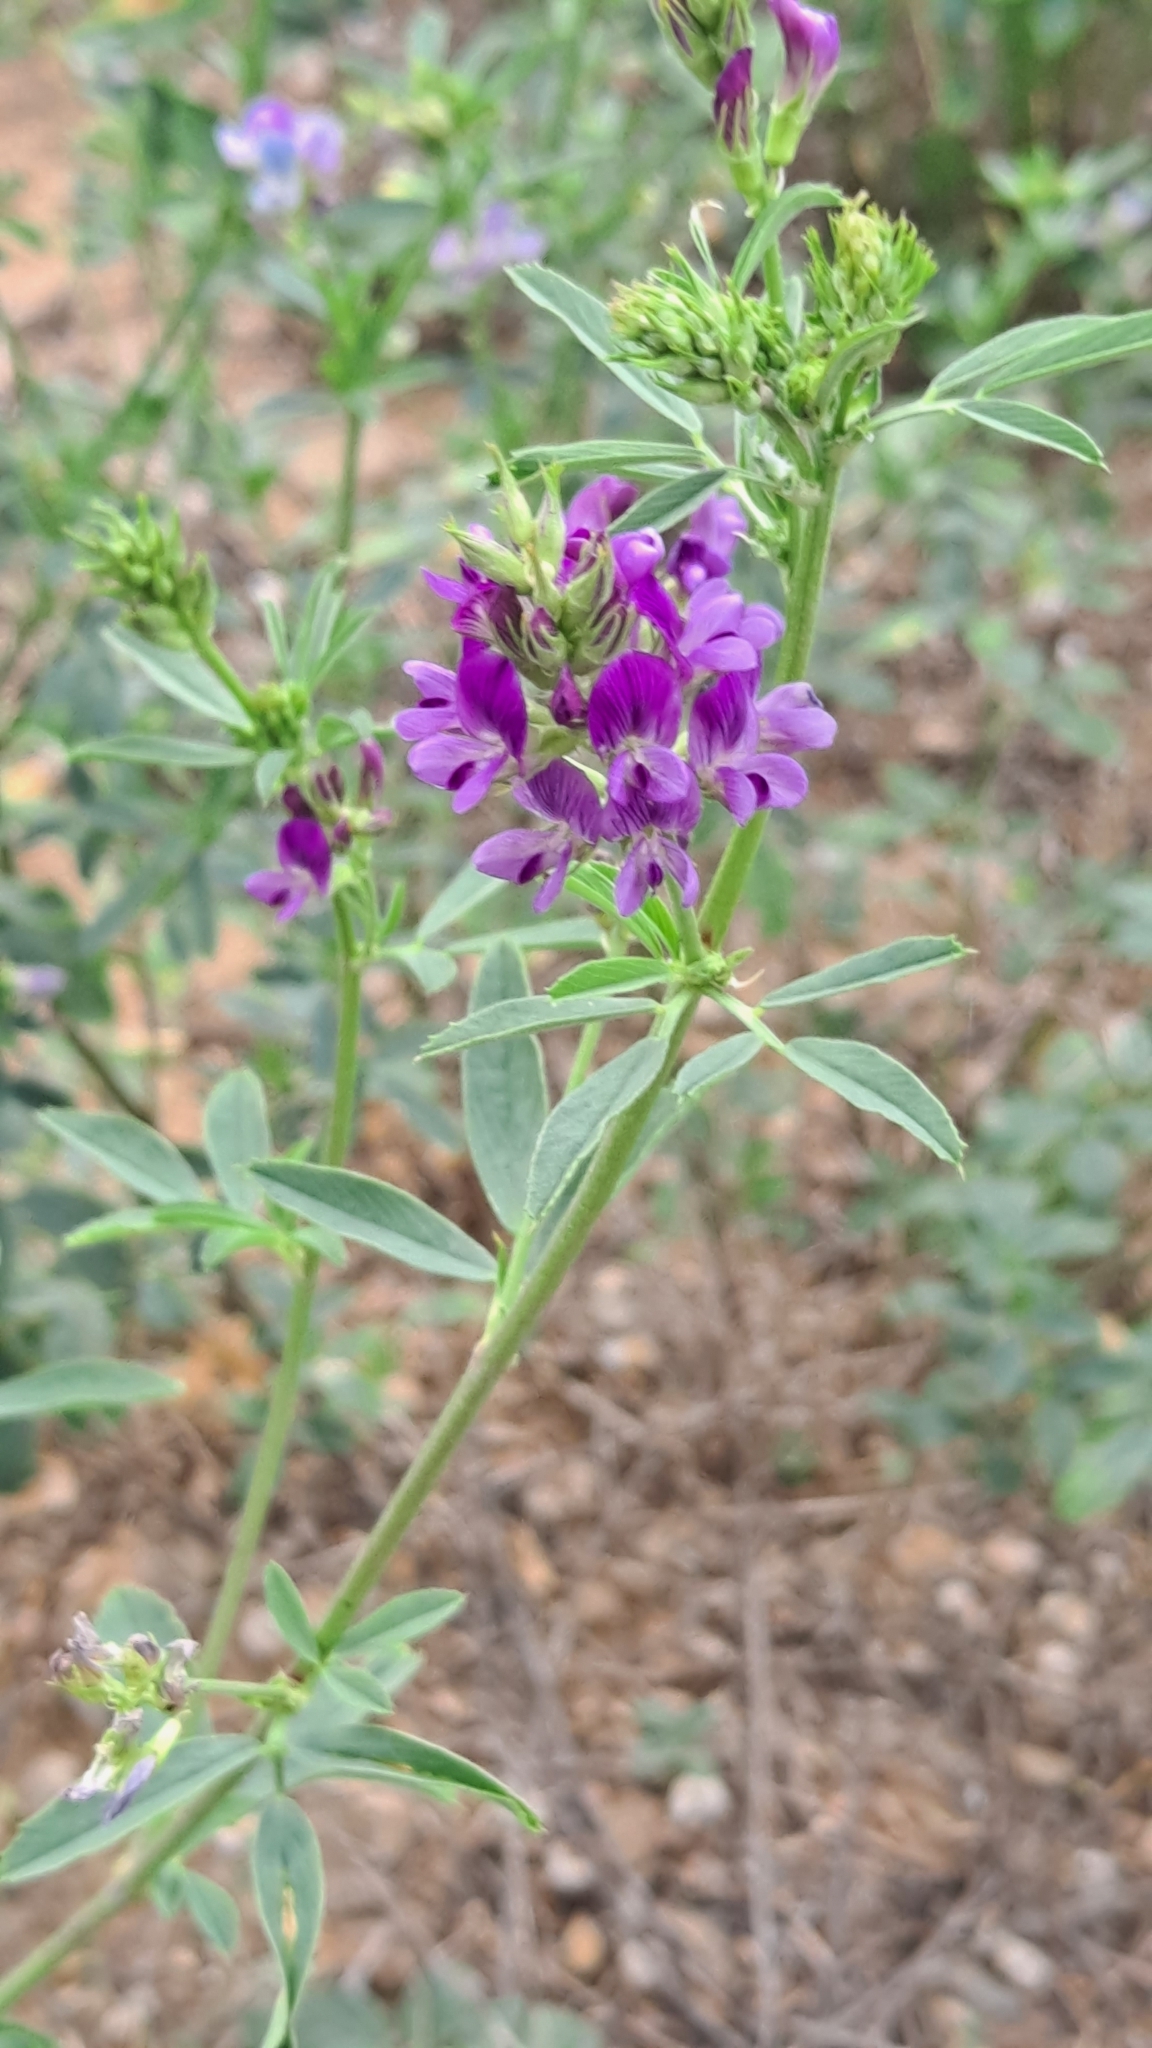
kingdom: Plantae
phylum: Tracheophyta
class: Magnoliopsida
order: Fabales
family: Fabaceae
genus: Medicago
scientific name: Medicago sativa
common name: Alfalfa
